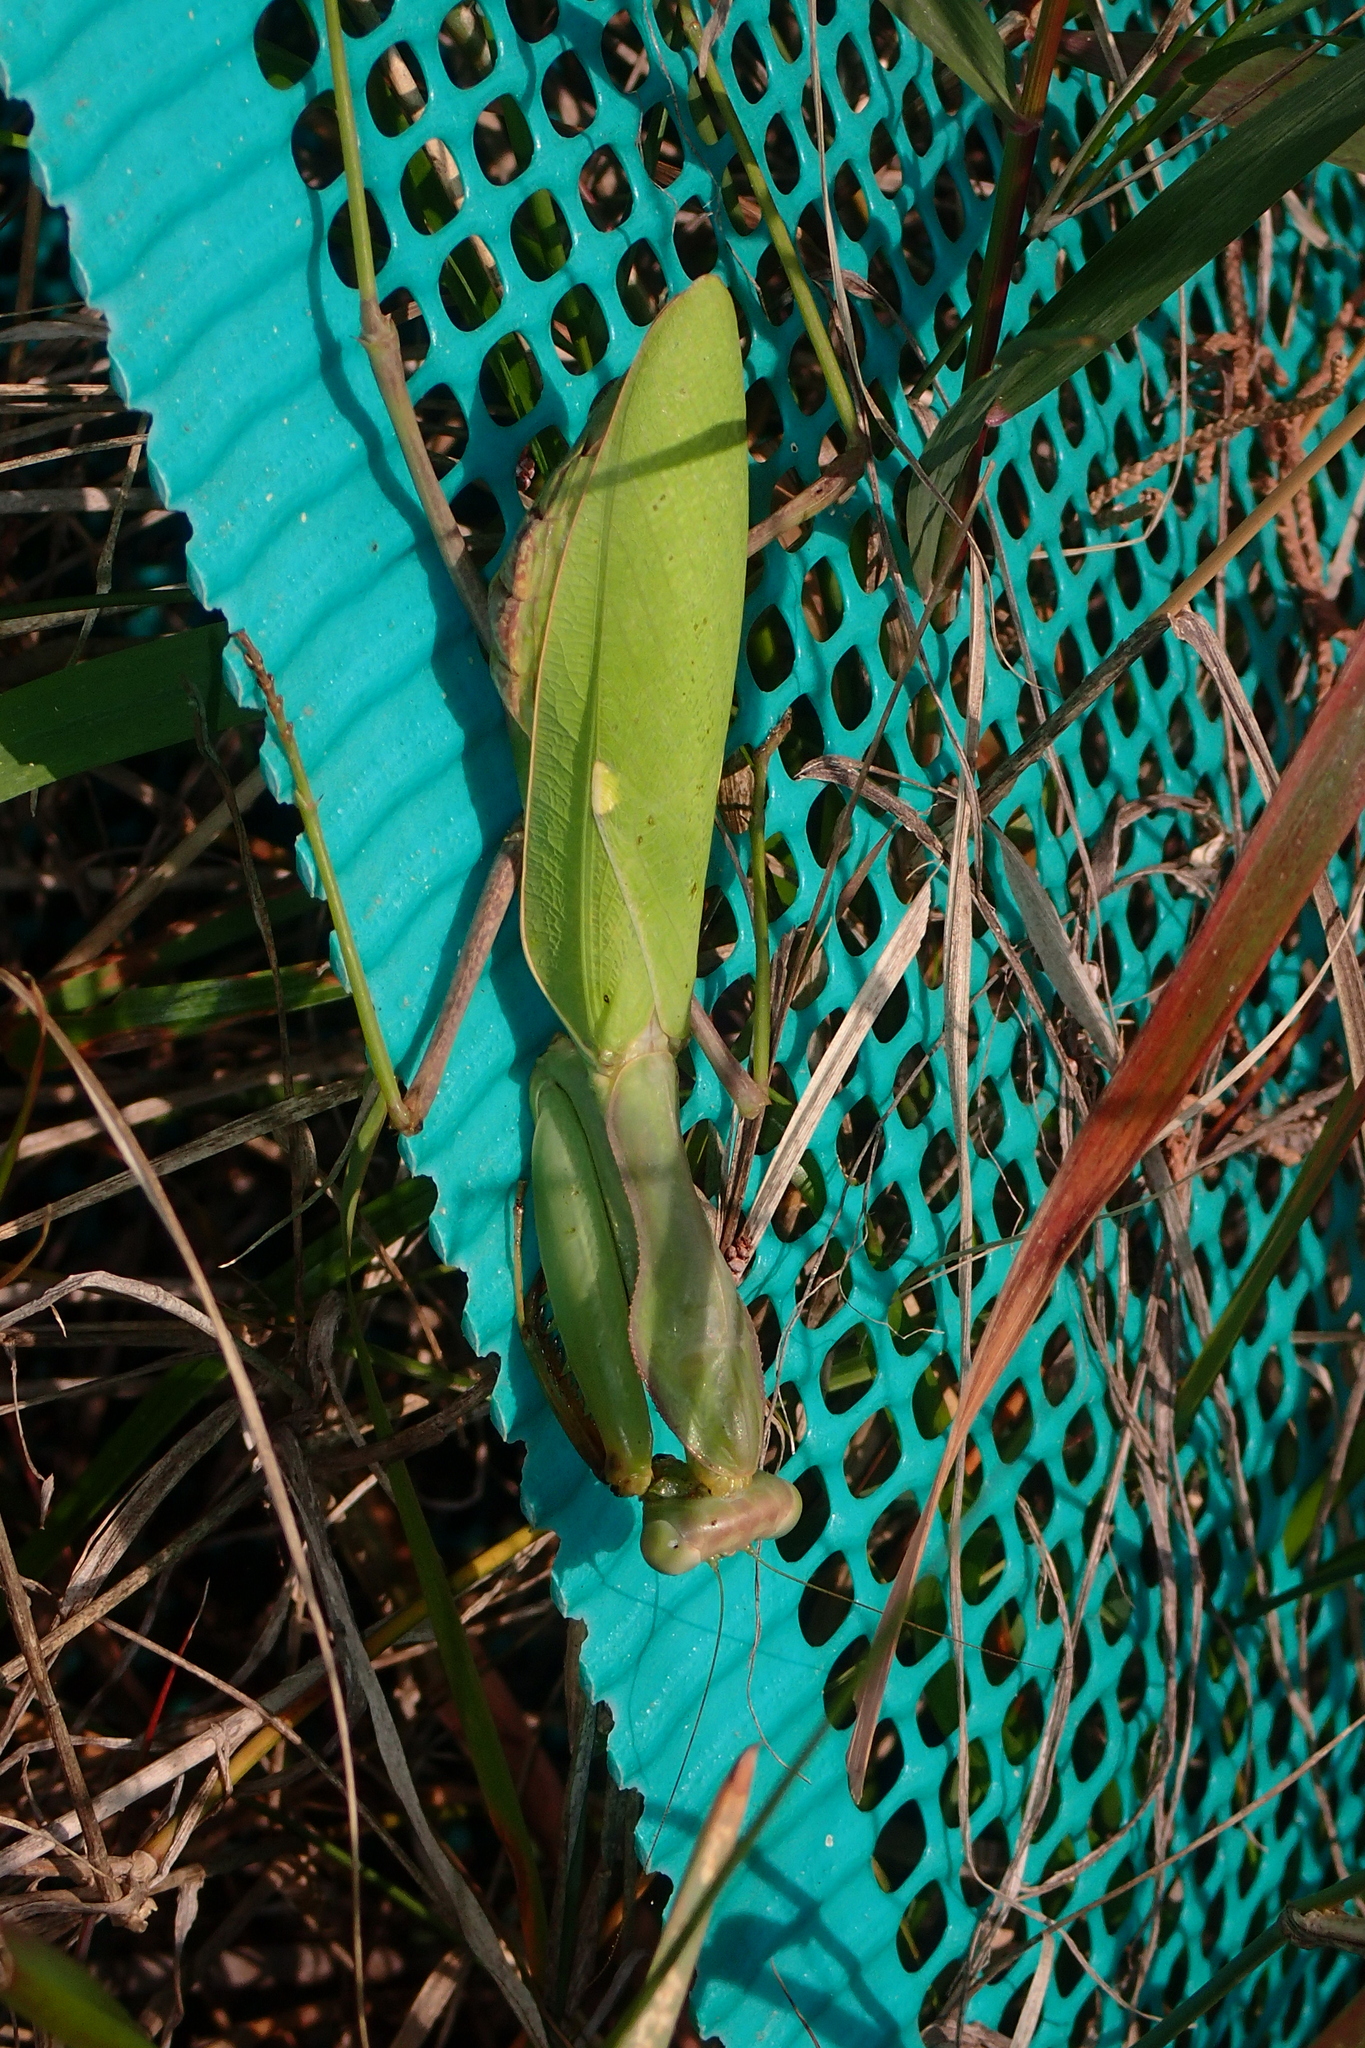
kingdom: Animalia
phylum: Arthropoda
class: Insecta
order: Mantodea
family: Mantidae
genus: Sphodromantis
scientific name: Sphodromantis viridis
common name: Giant african mantis
